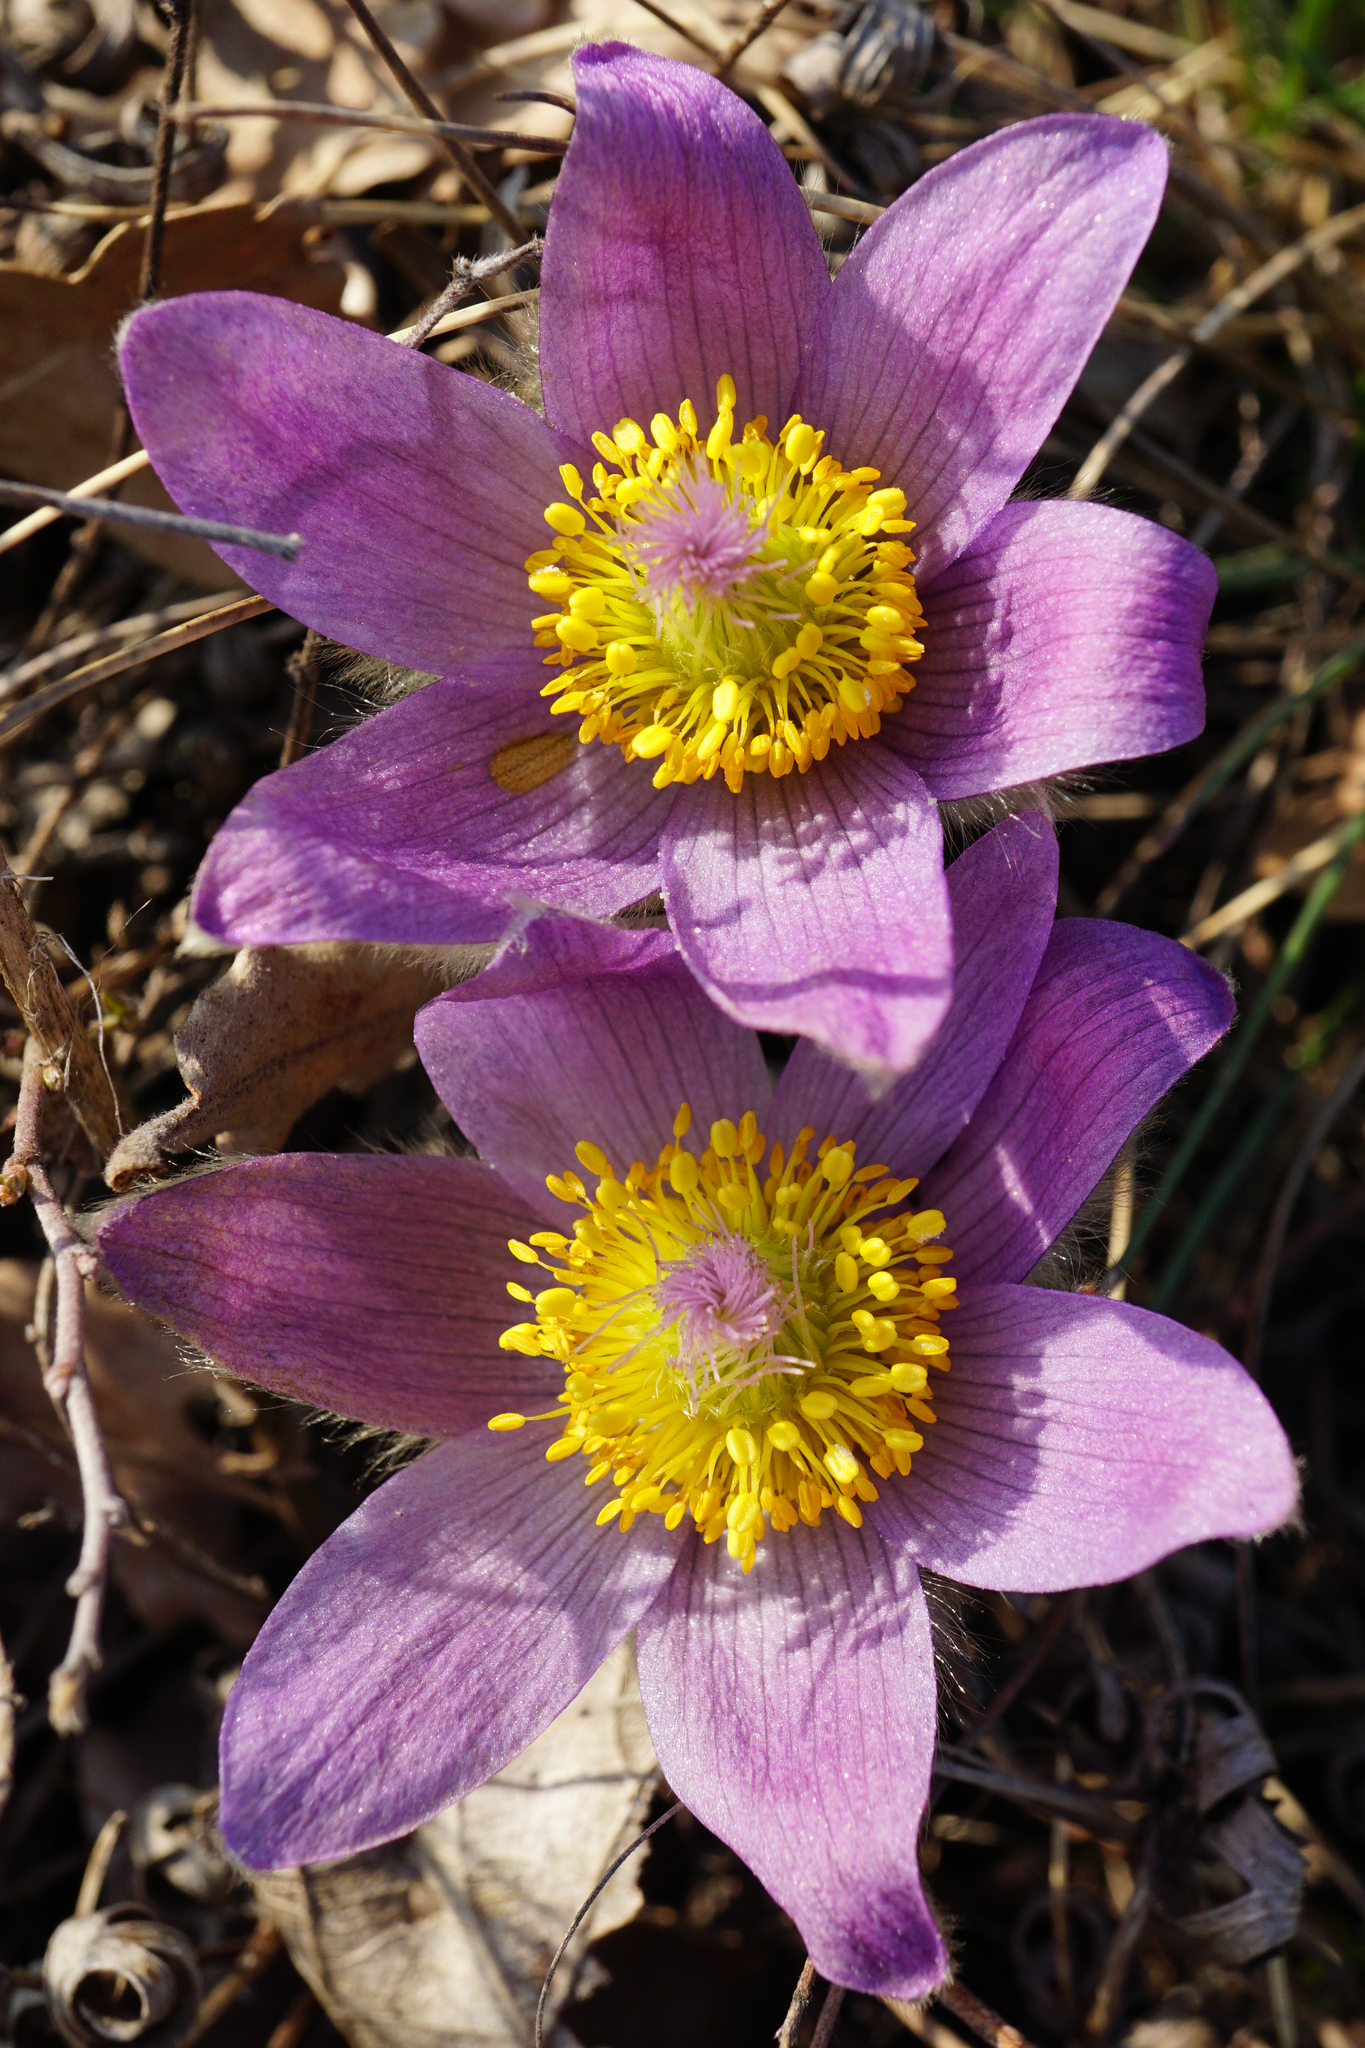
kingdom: Plantae
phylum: Tracheophyta
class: Magnoliopsida
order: Ranunculales
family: Ranunculaceae
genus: Pulsatilla
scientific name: Pulsatilla grandis
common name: Greater pasque flower
